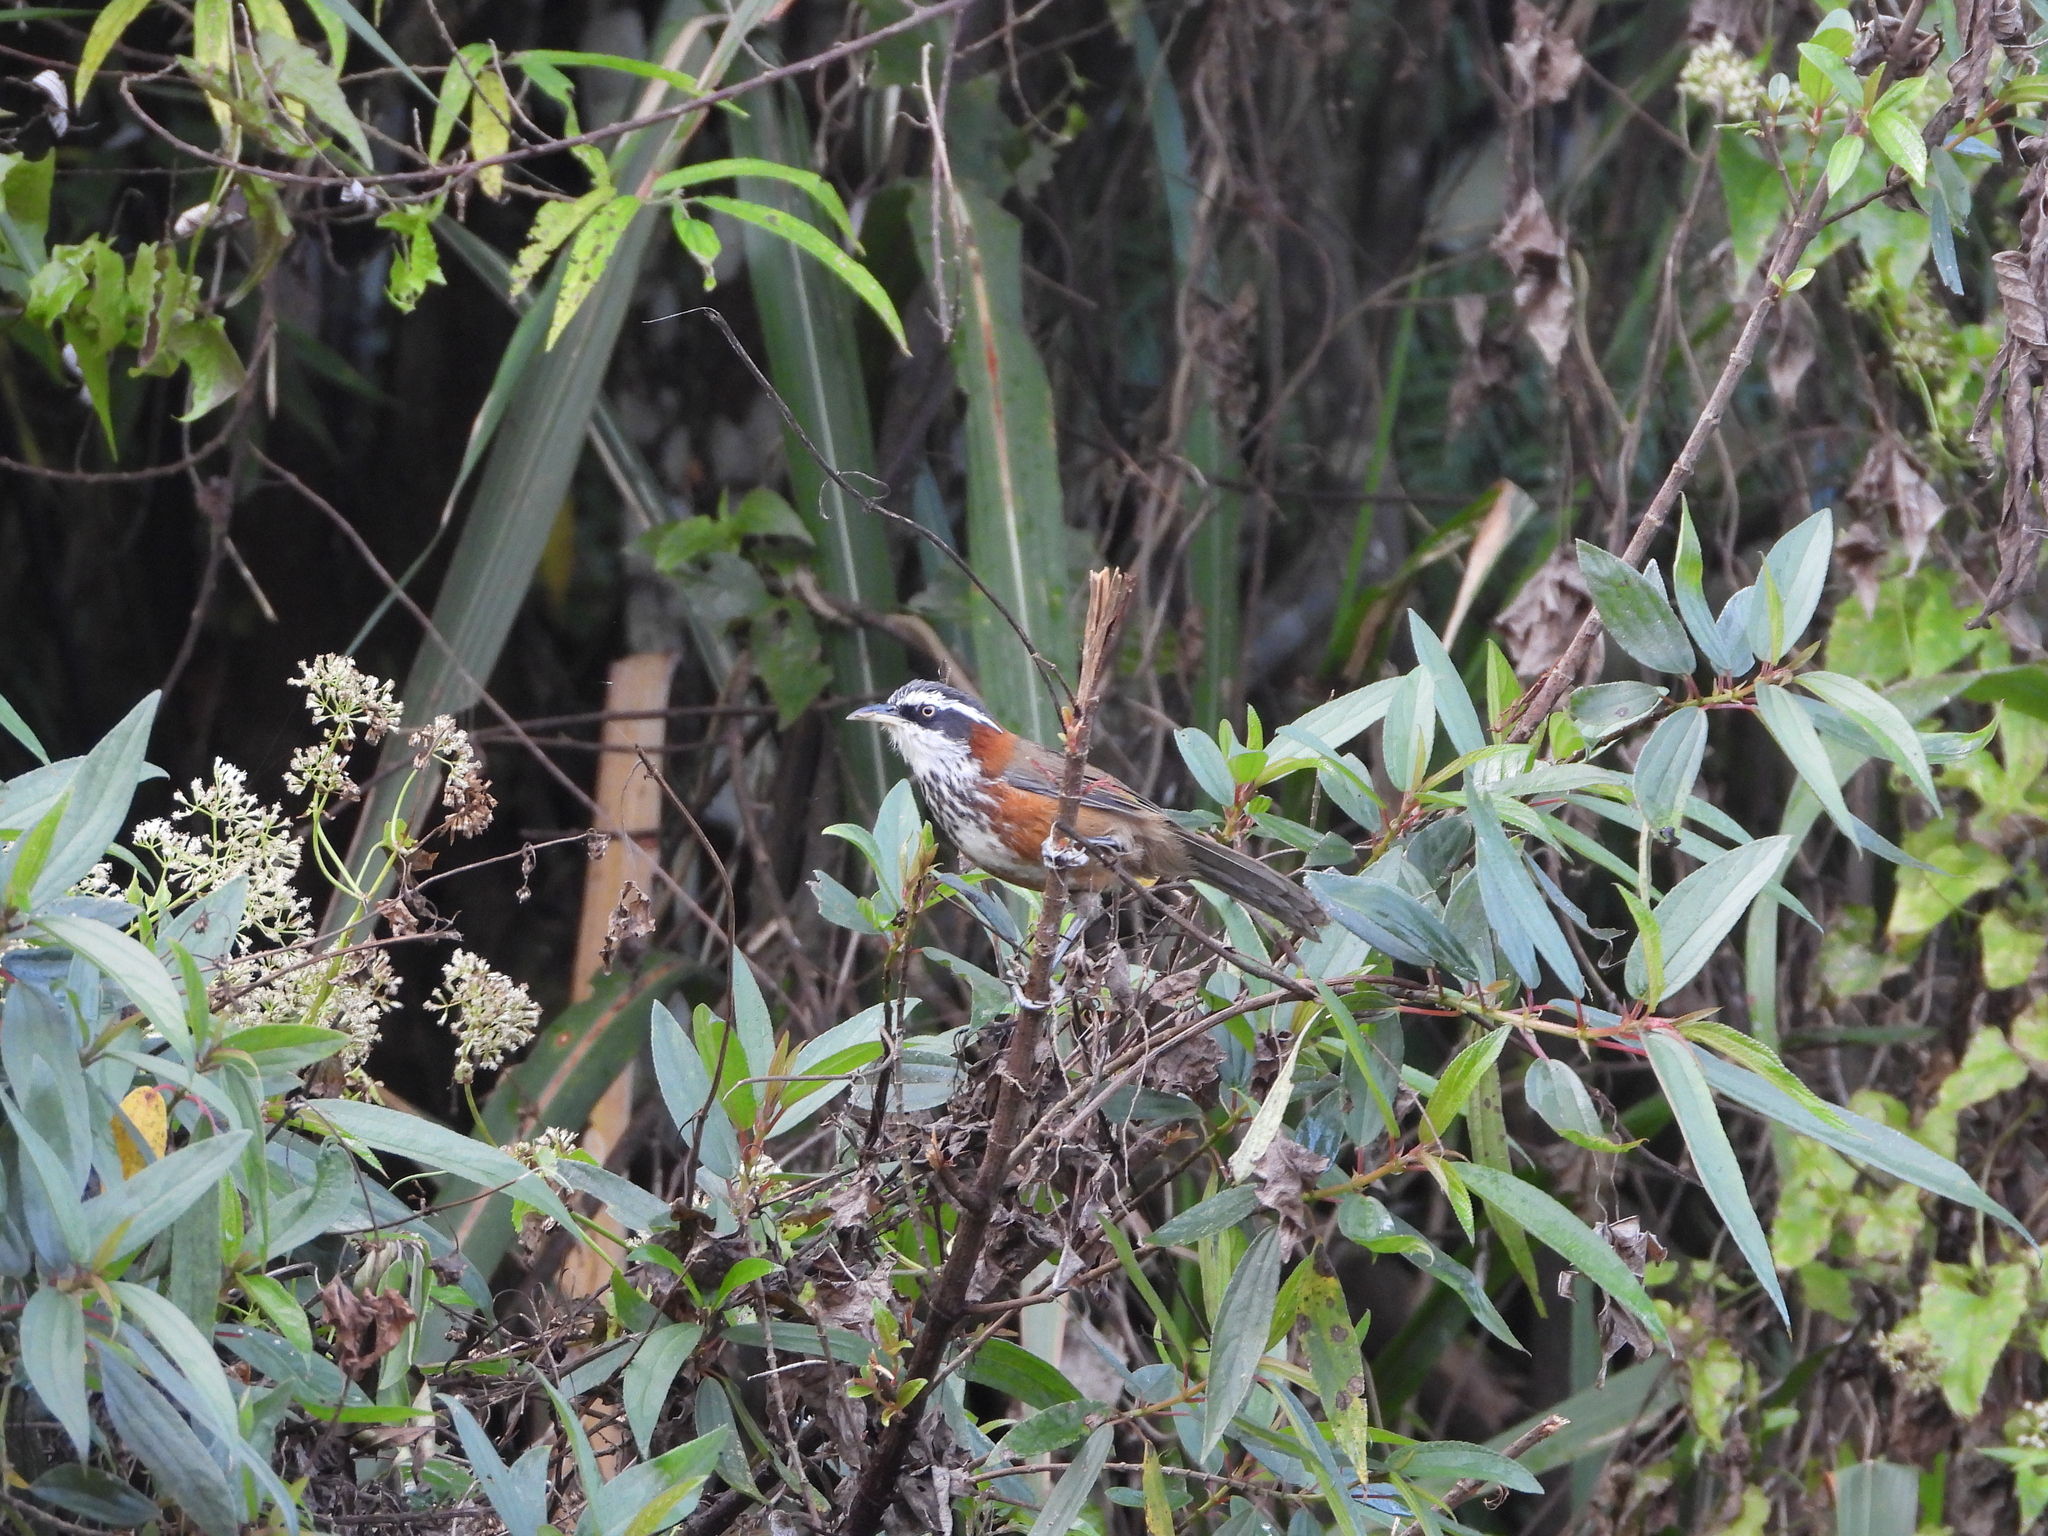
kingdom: Animalia
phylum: Chordata
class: Aves
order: Passeriformes
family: Timaliidae
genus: Pomatorhinus
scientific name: Pomatorhinus musicus
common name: Taiwan scimitar-babbler
